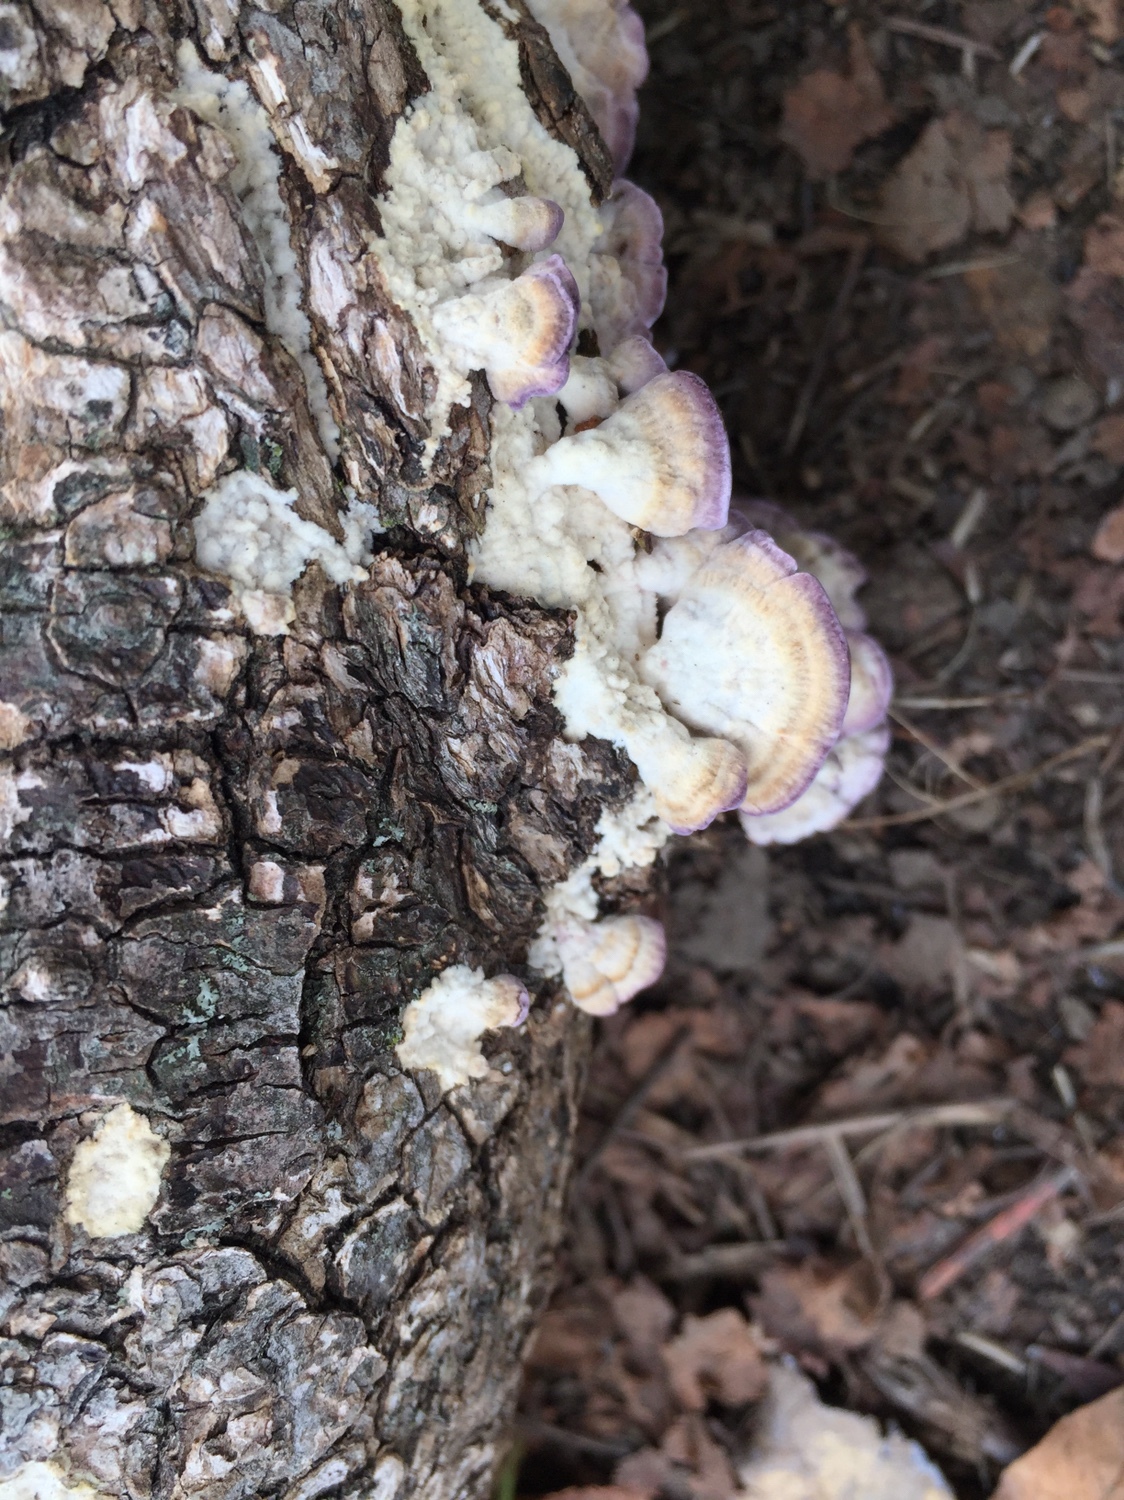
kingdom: Fungi
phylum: Basidiomycota
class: Agaricomycetes
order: Hymenochaetales
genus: Trichaptum
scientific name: Trichaptum biforme
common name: Violet-toothed polypore
